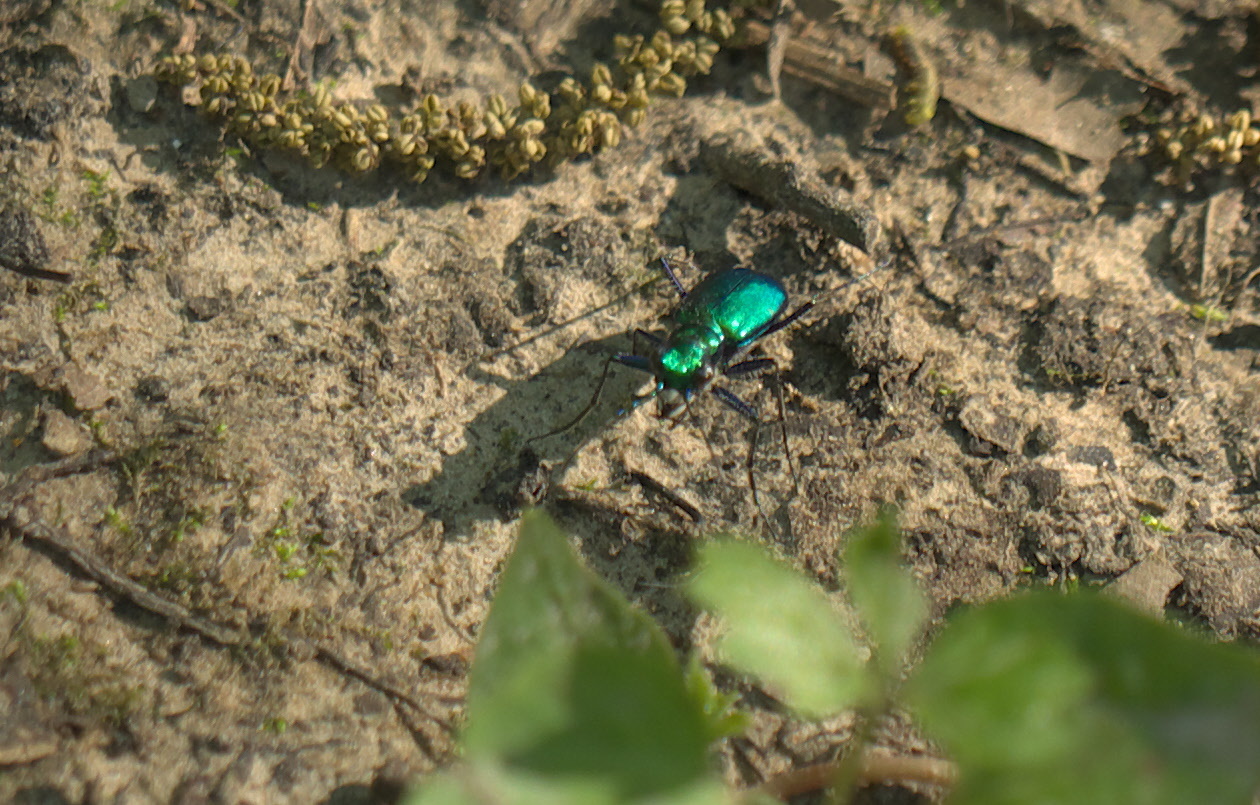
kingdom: Animalia
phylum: Arthropoda
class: Insecta
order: Coleoptera
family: Carabidae
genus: Cicindela
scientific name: Cicindela sexguttata
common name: Six-spotted tiger beetle
